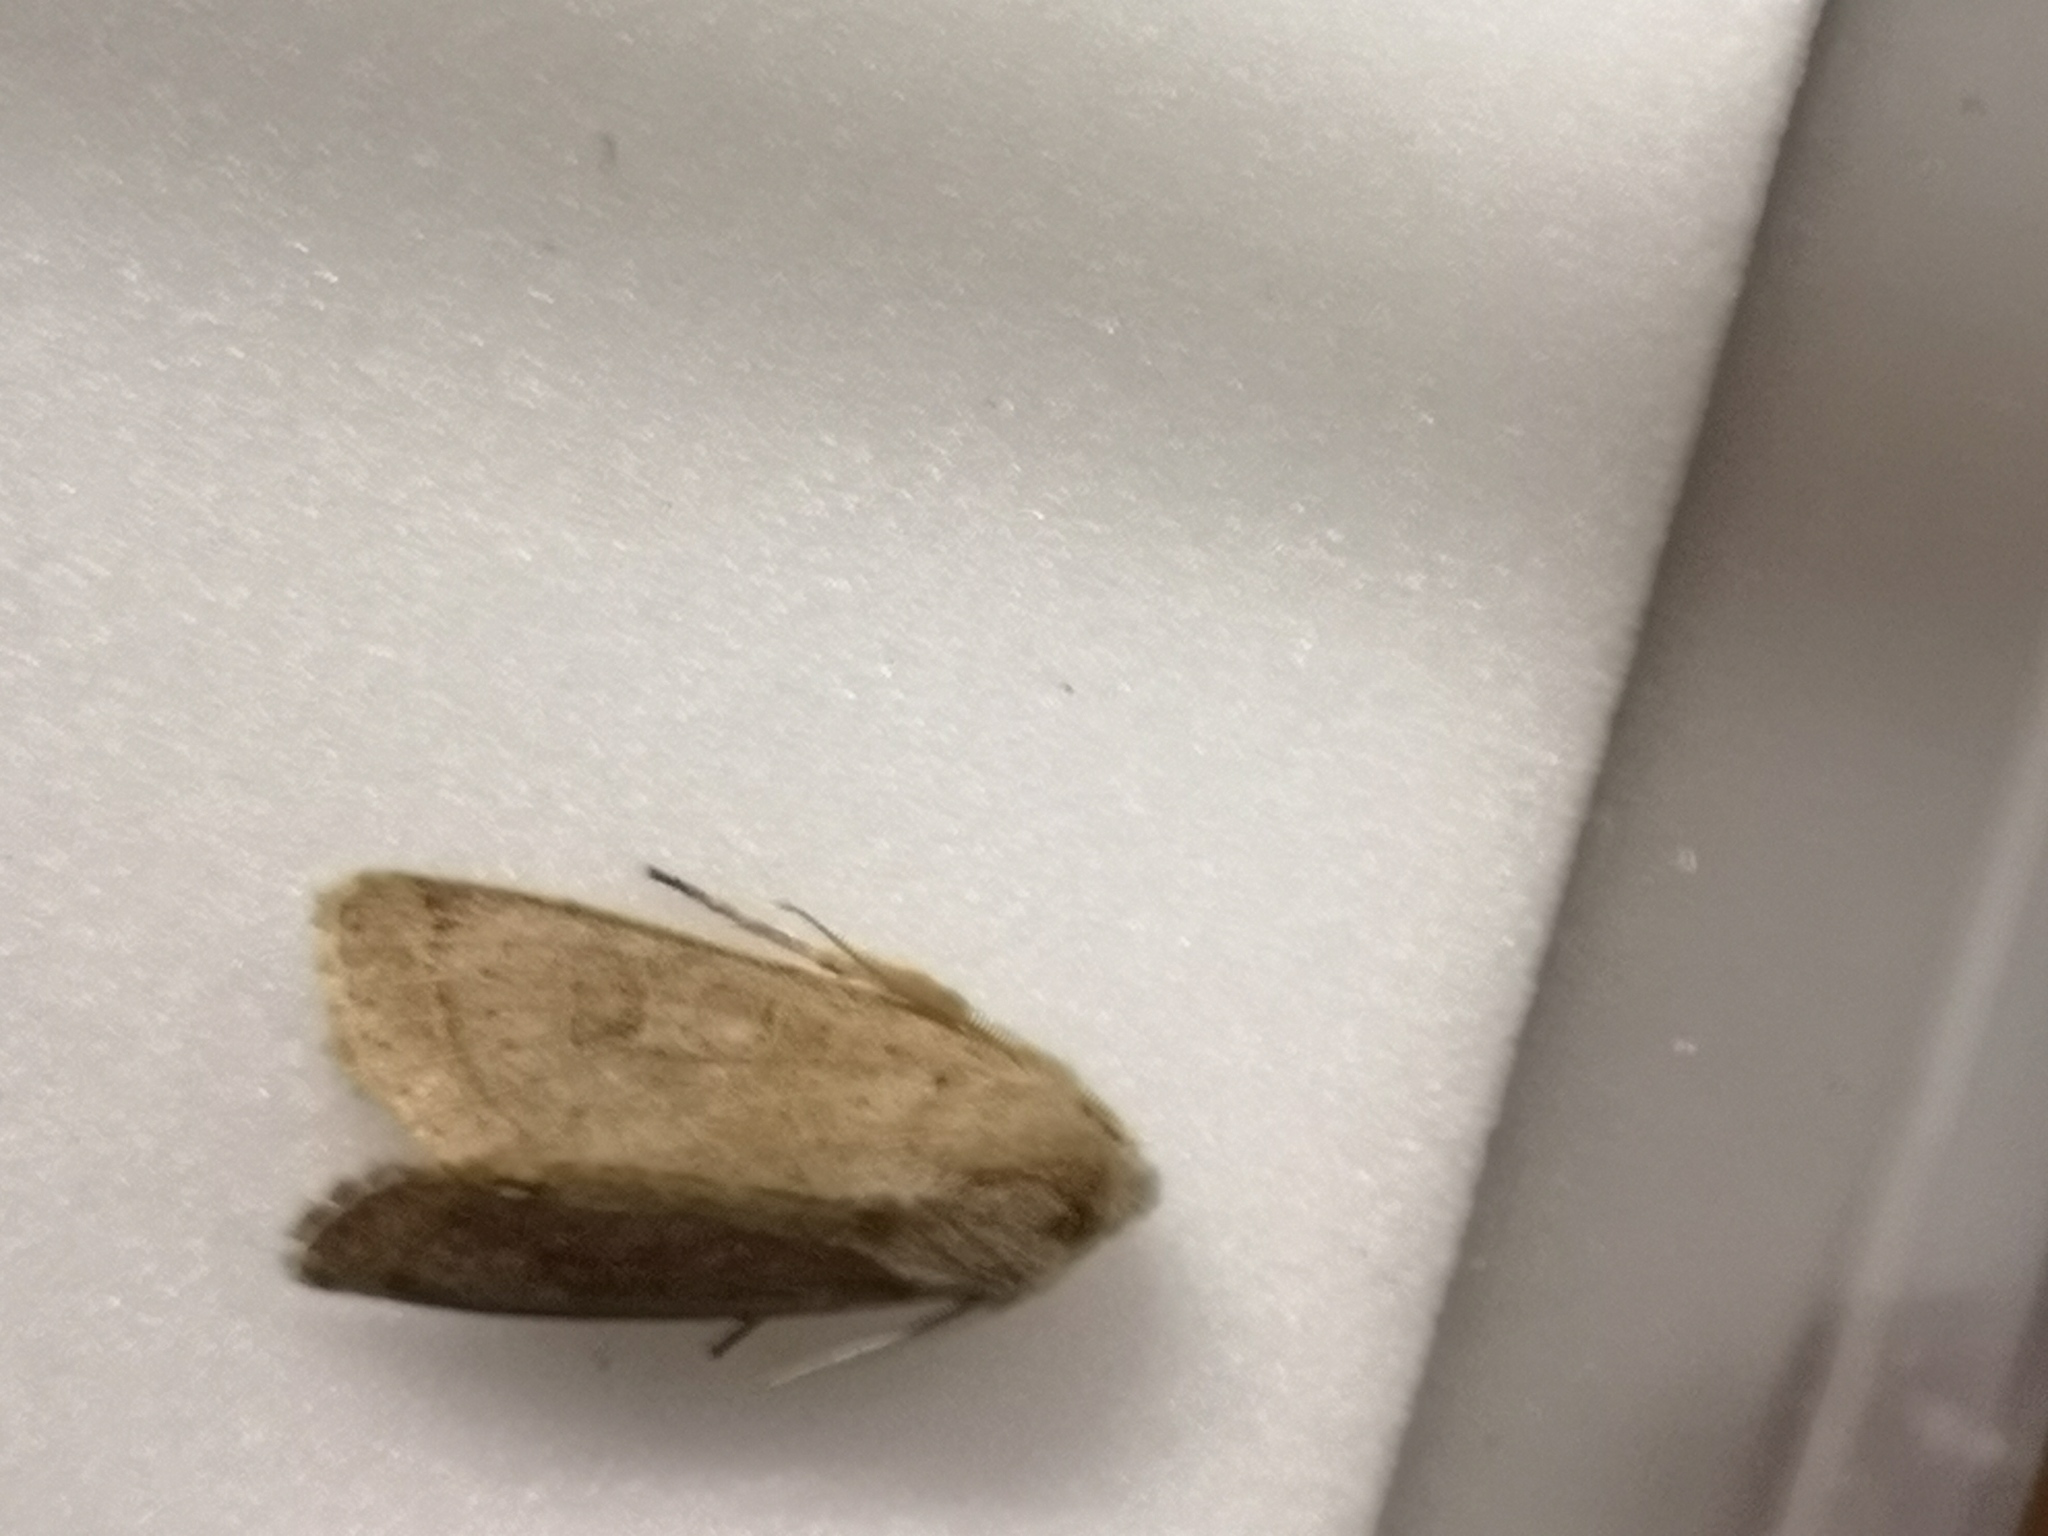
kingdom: Animalia
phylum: Arthropoda
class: Insecta
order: Lepidoptera
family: Noctuidae
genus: Orthosia
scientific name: Orthosia cerasi
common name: Common quaker
